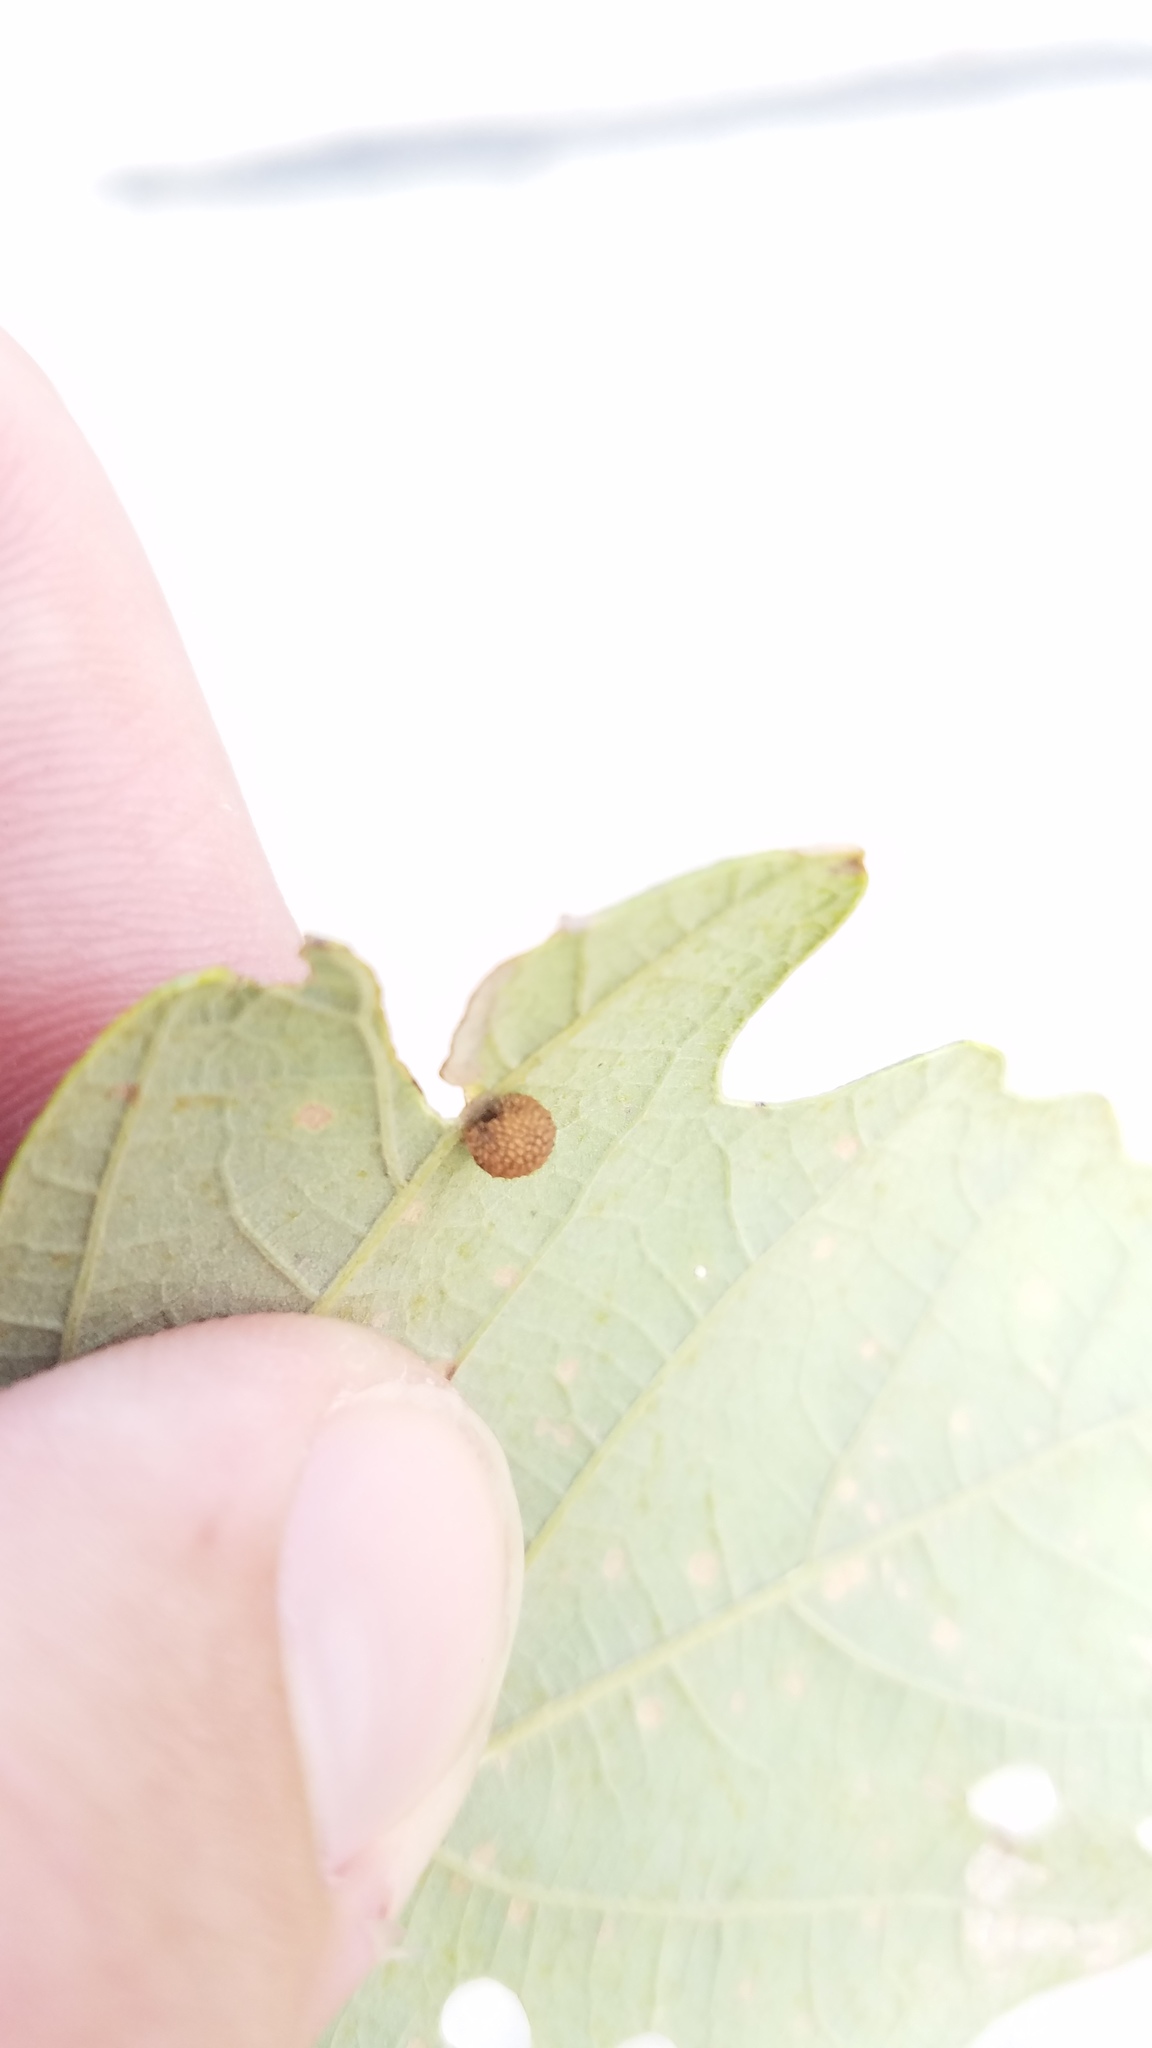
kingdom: Animalia
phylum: Arthropoda
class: Insecta
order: Hymenoptera
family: Cynipidae
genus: Acraspis
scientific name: Acraspis quercushirta
